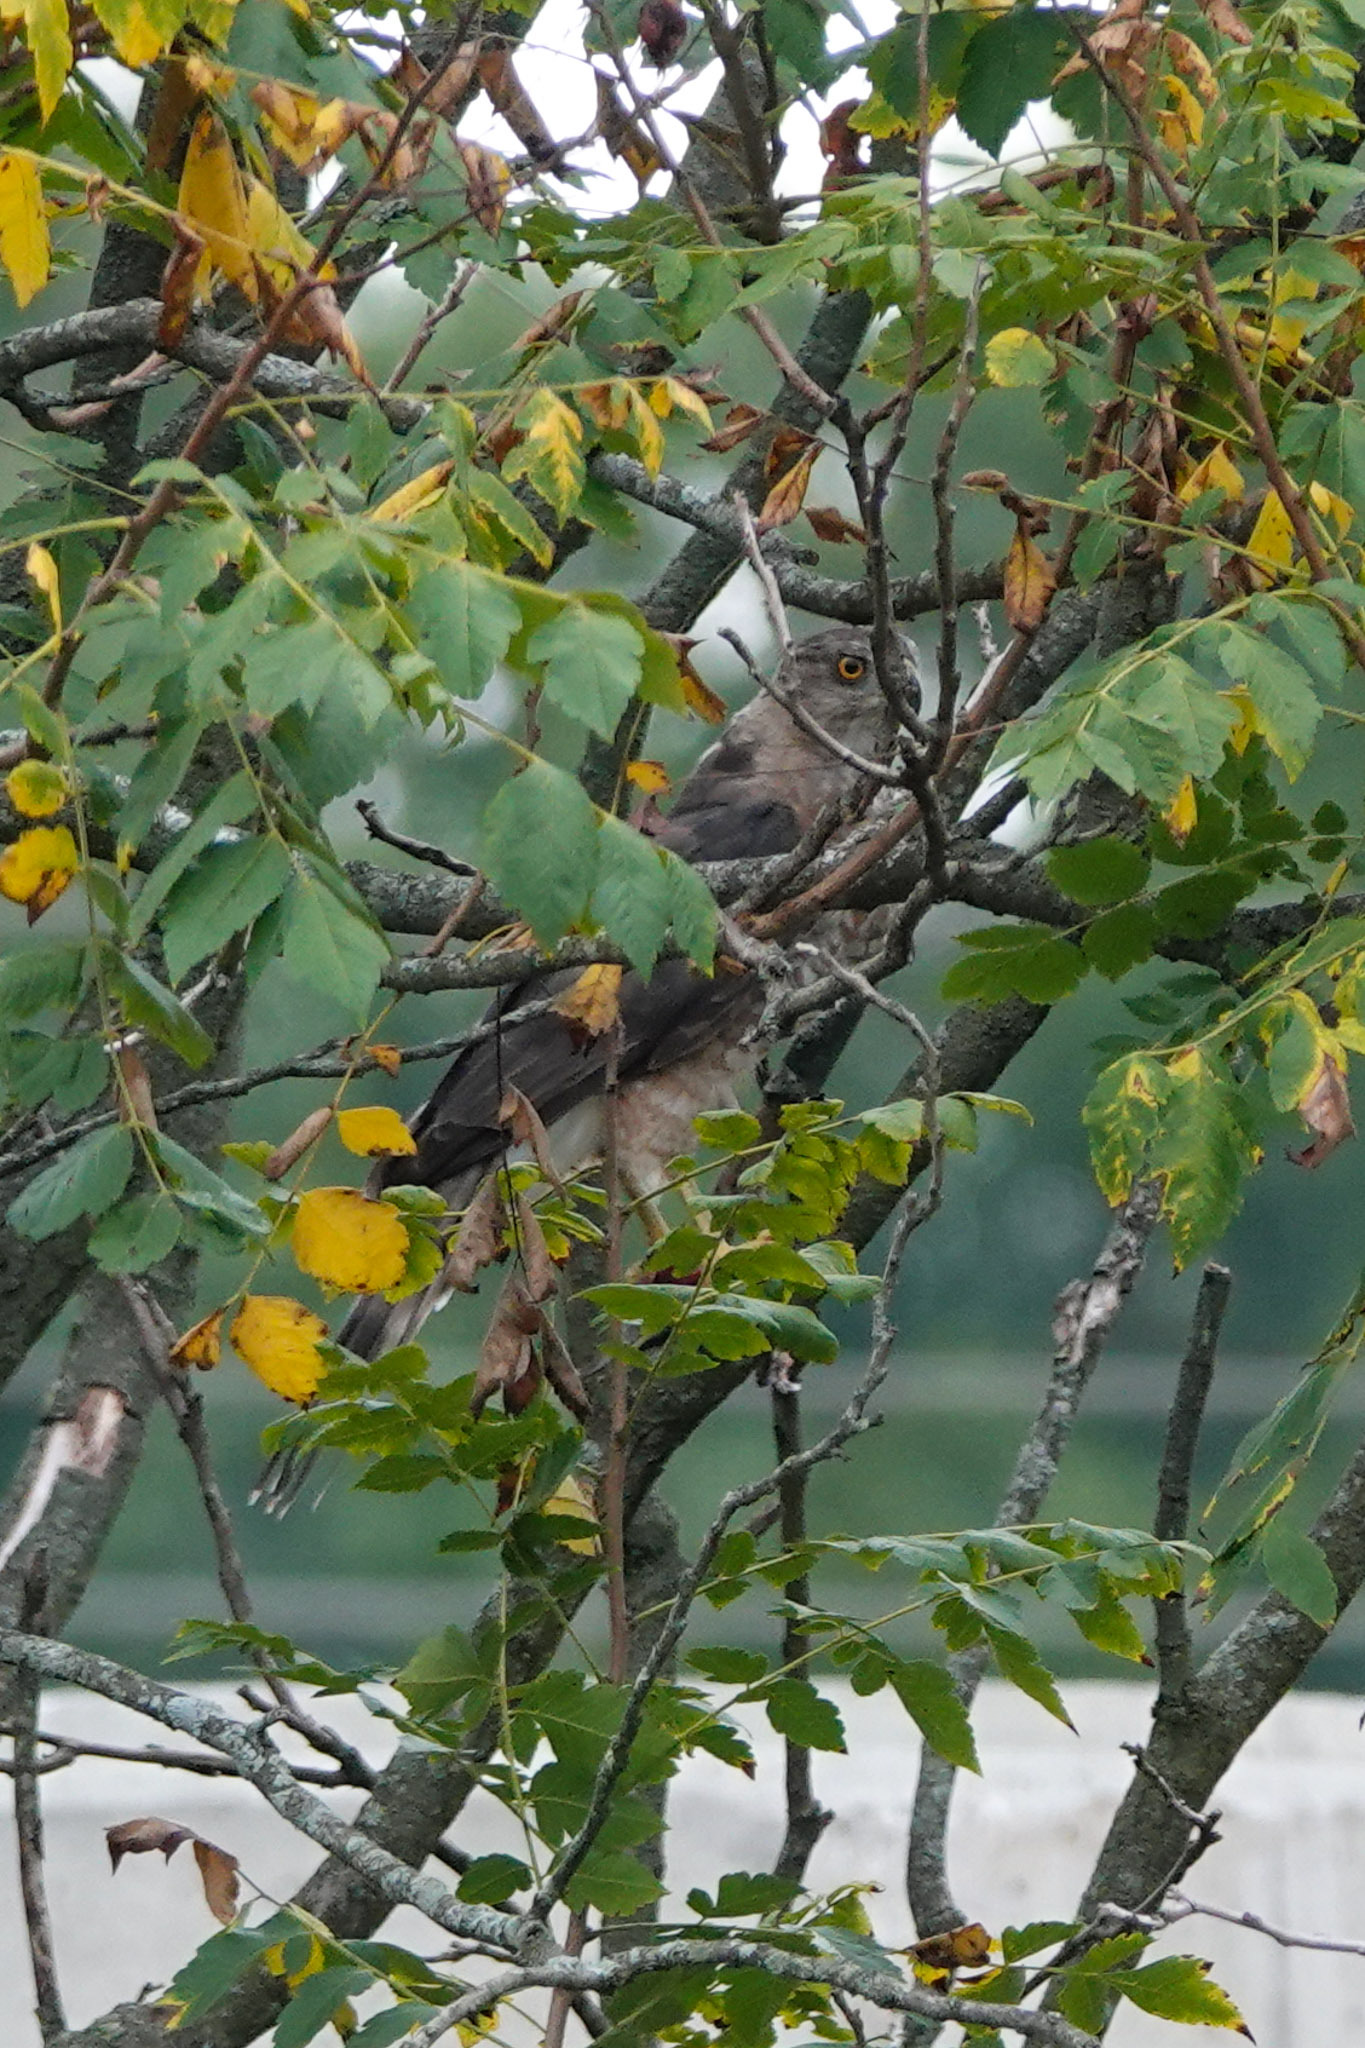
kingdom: Animalia
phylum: Chordata
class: Aves
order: Accipitriformes
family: Accipitridae
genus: Accipiter
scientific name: Accipiter cooperii
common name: Cooper's hawk
